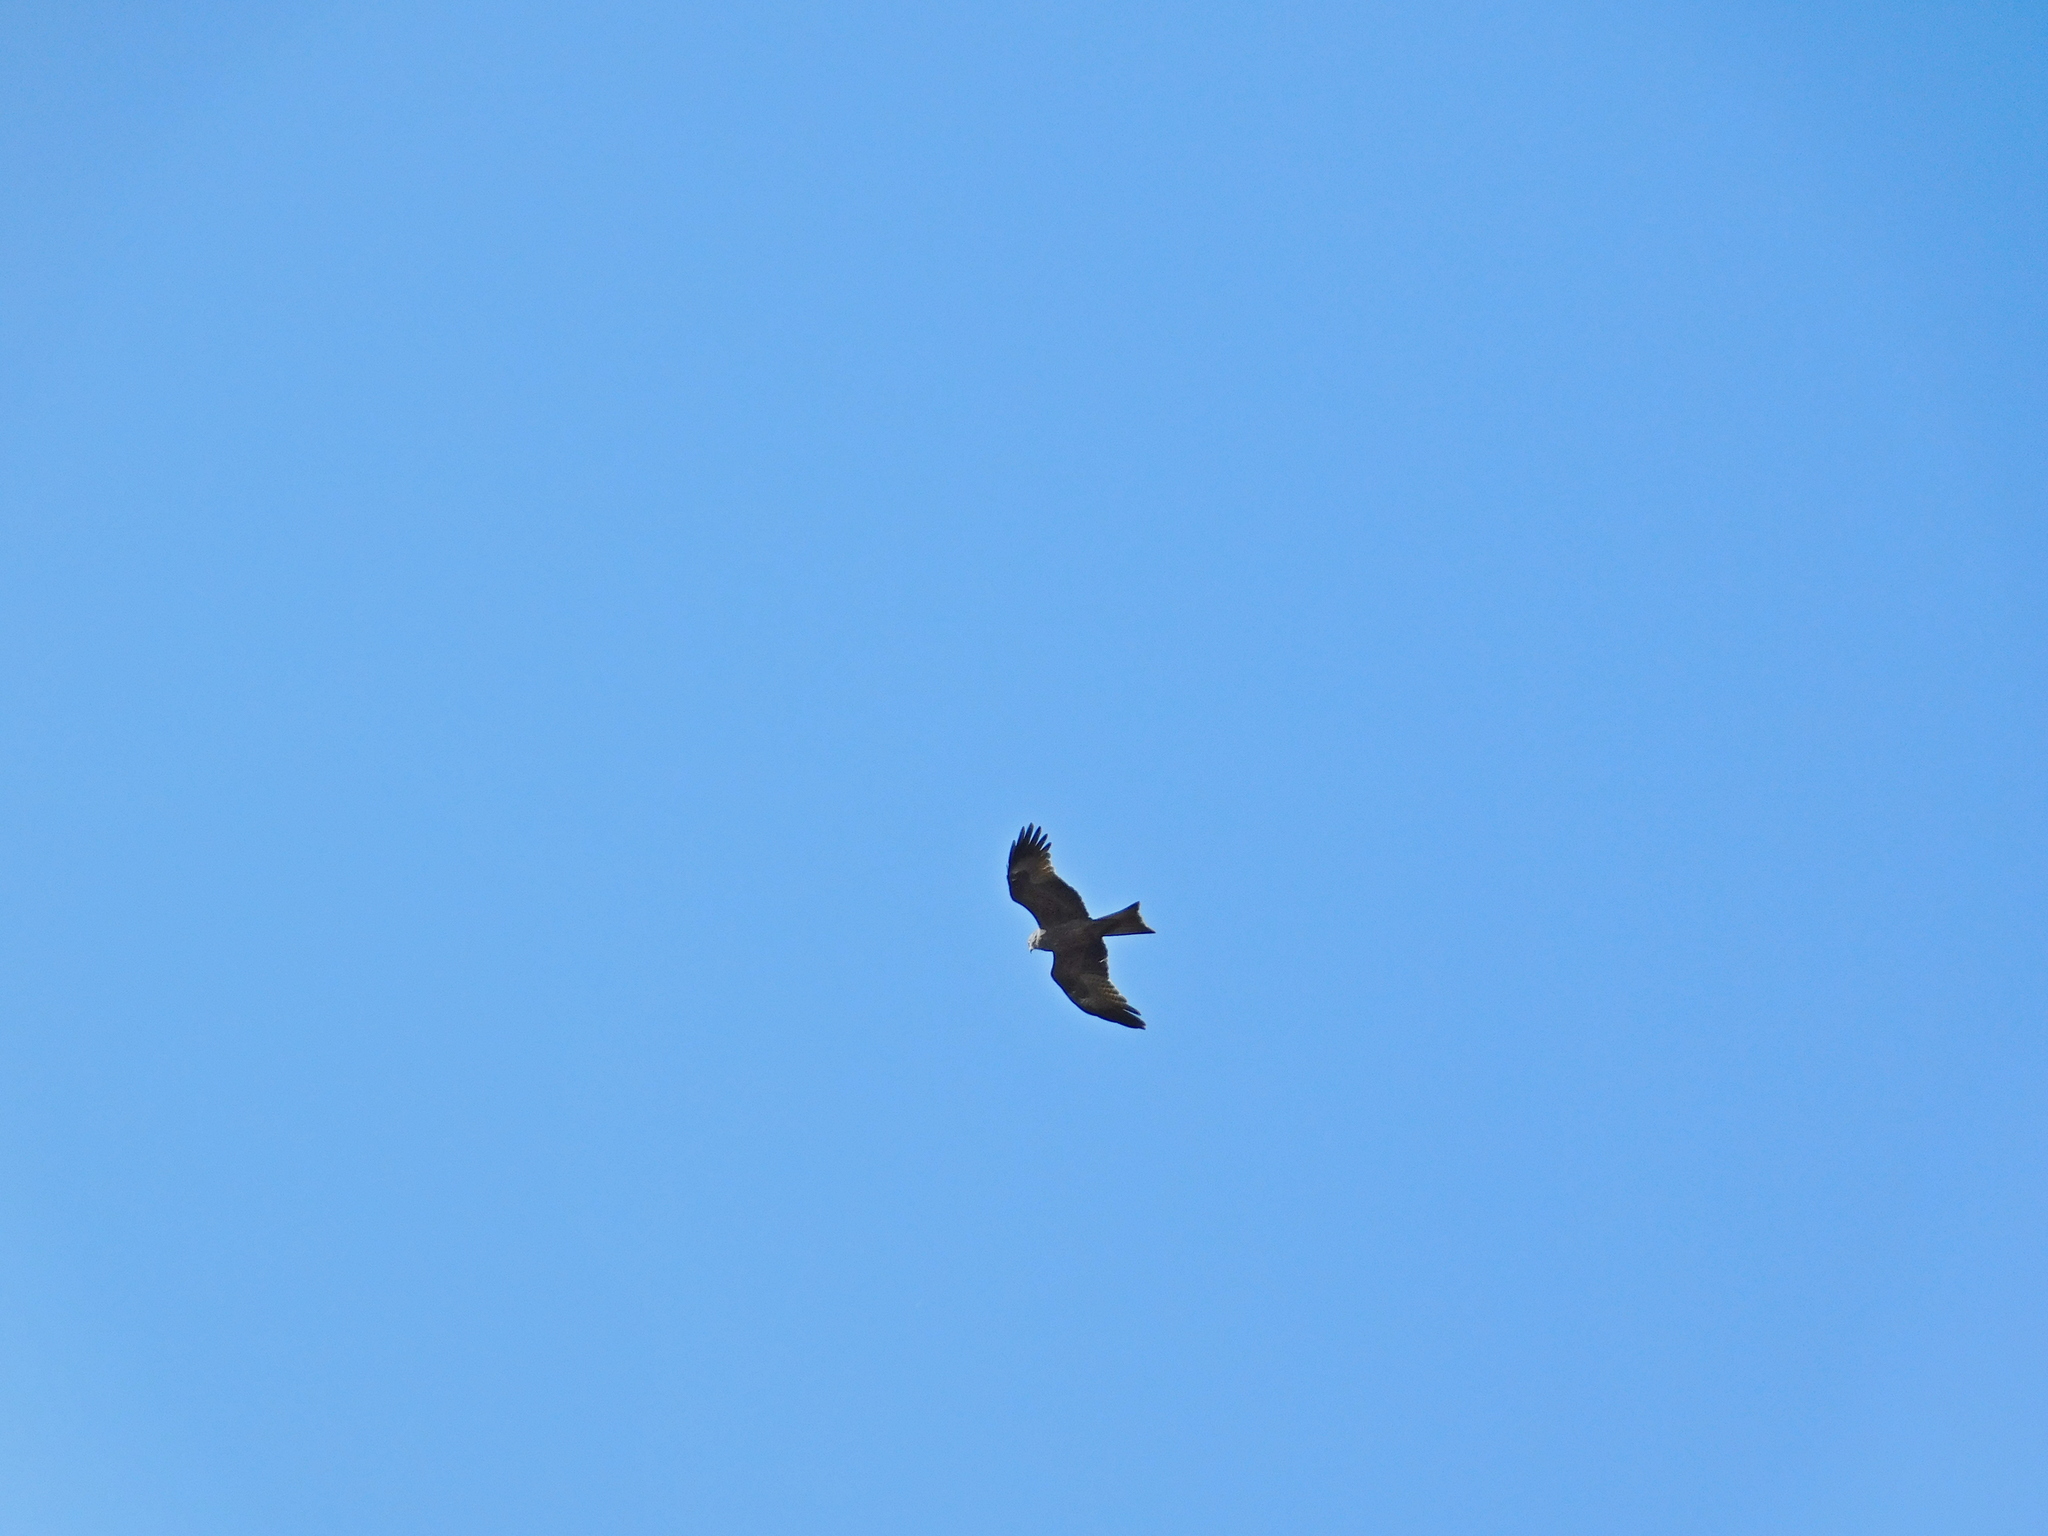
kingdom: Animalia
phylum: Chordata
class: Aves
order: Accipitriformes
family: Accipitridae
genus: Milvus
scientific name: Milvus migrans
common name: Black kite
